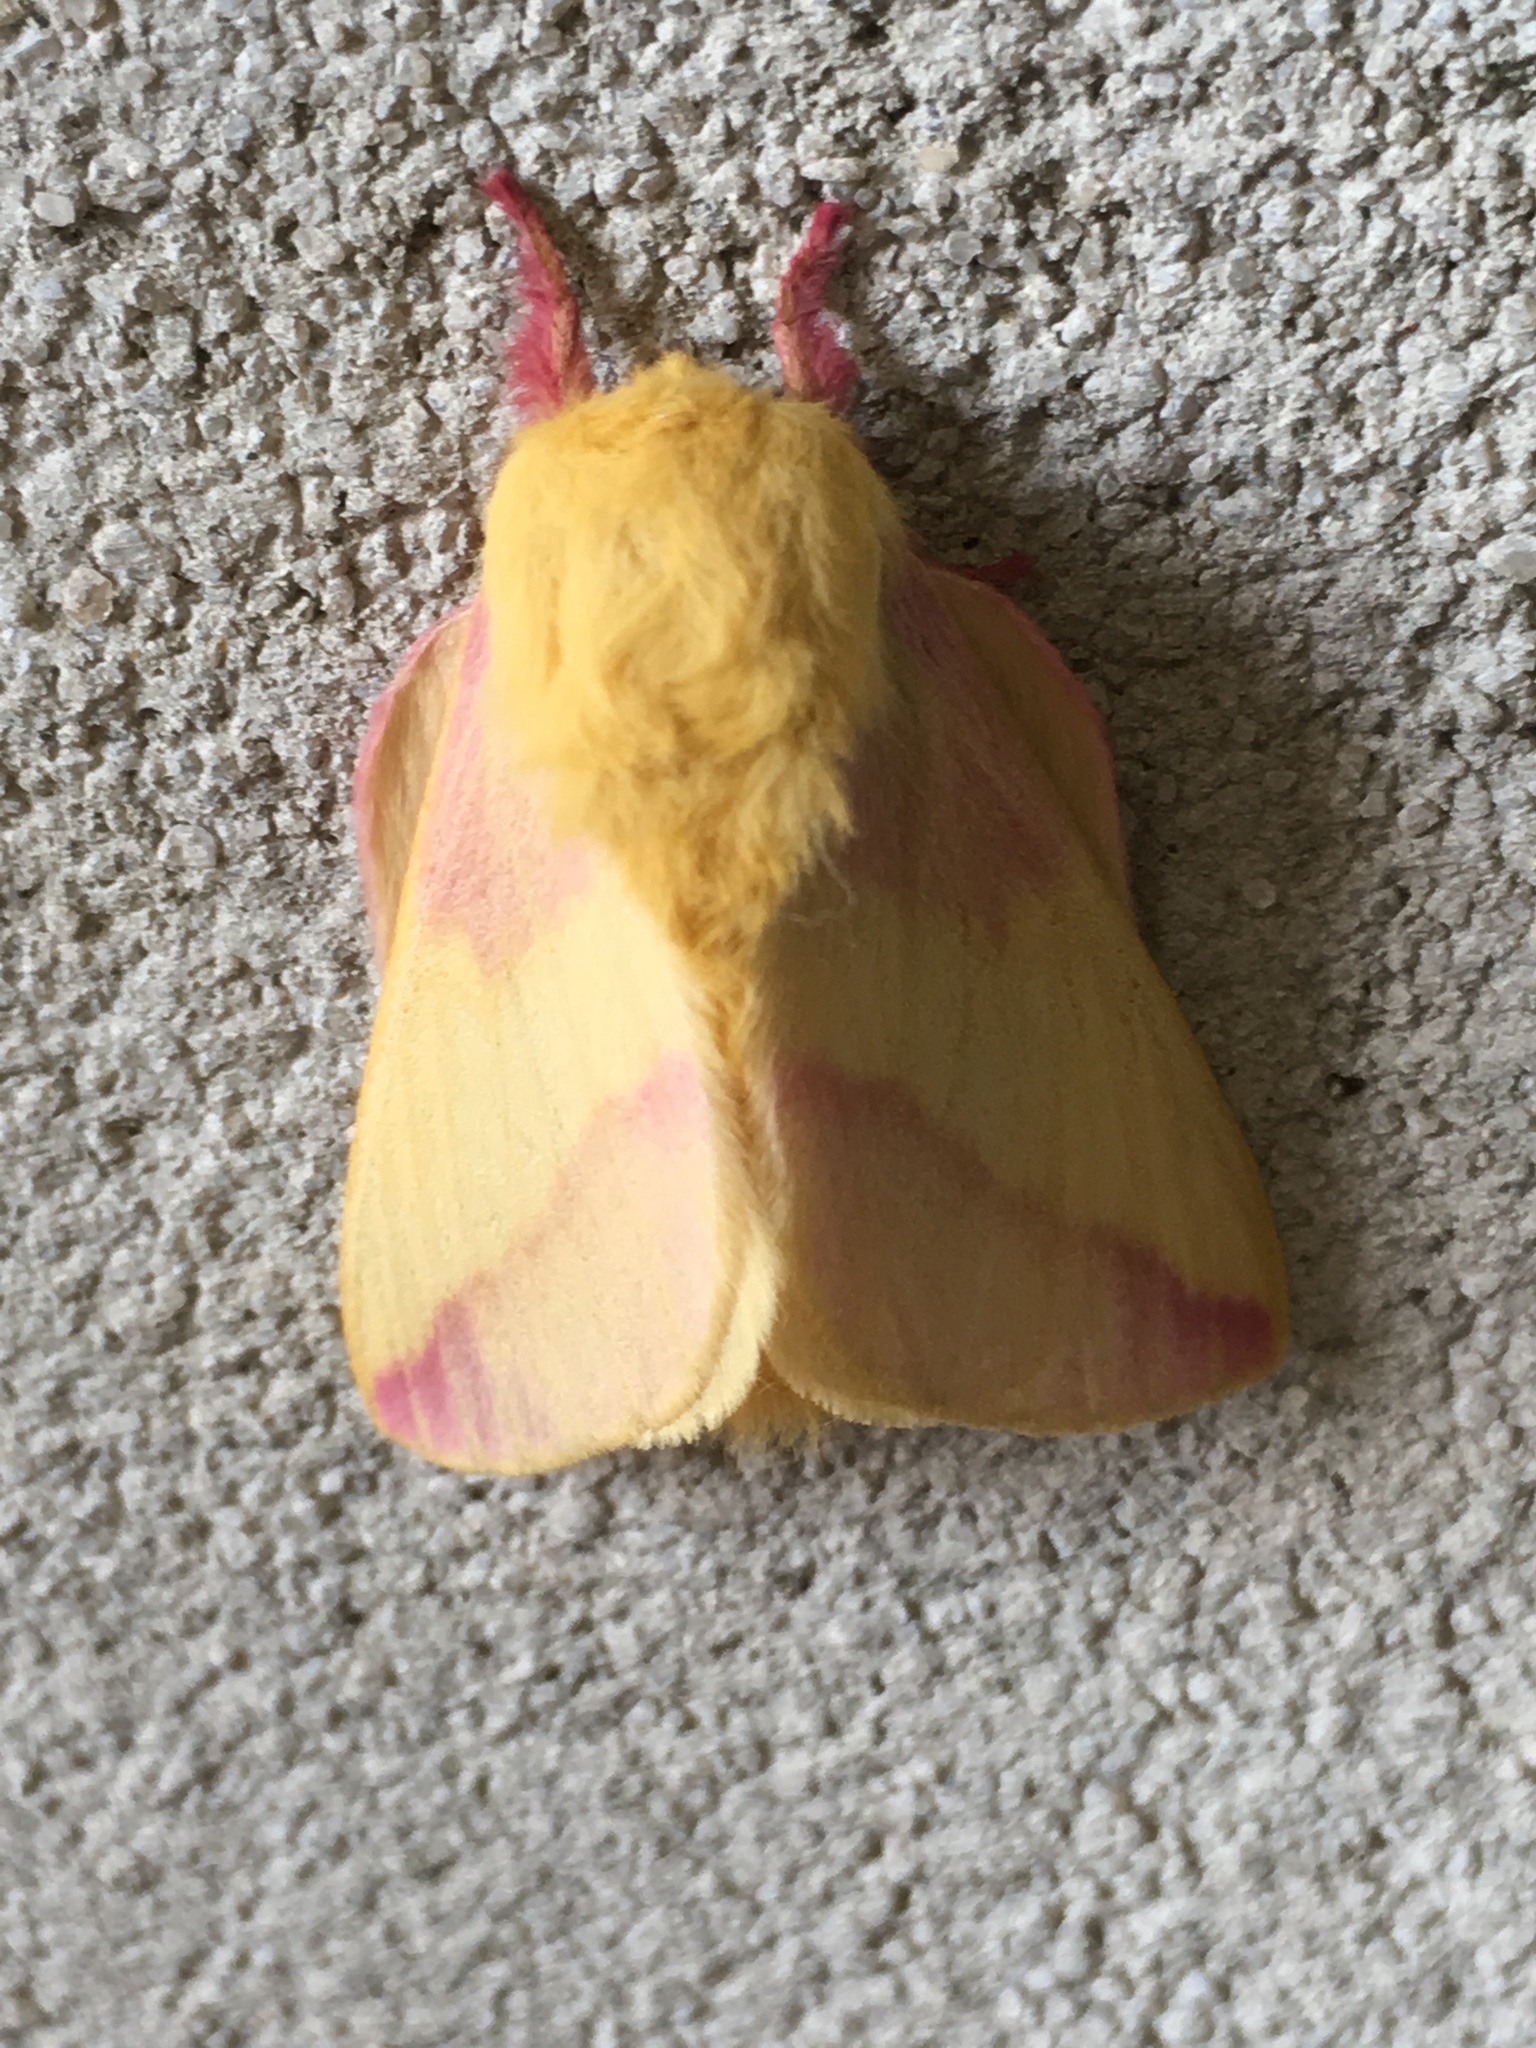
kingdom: Animalia
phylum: Arthropoda
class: Insecta
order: Lepidoptera
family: Saturniidae
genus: Dryocampa
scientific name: Dryocampa rubicunda
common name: Rosy maple moth
